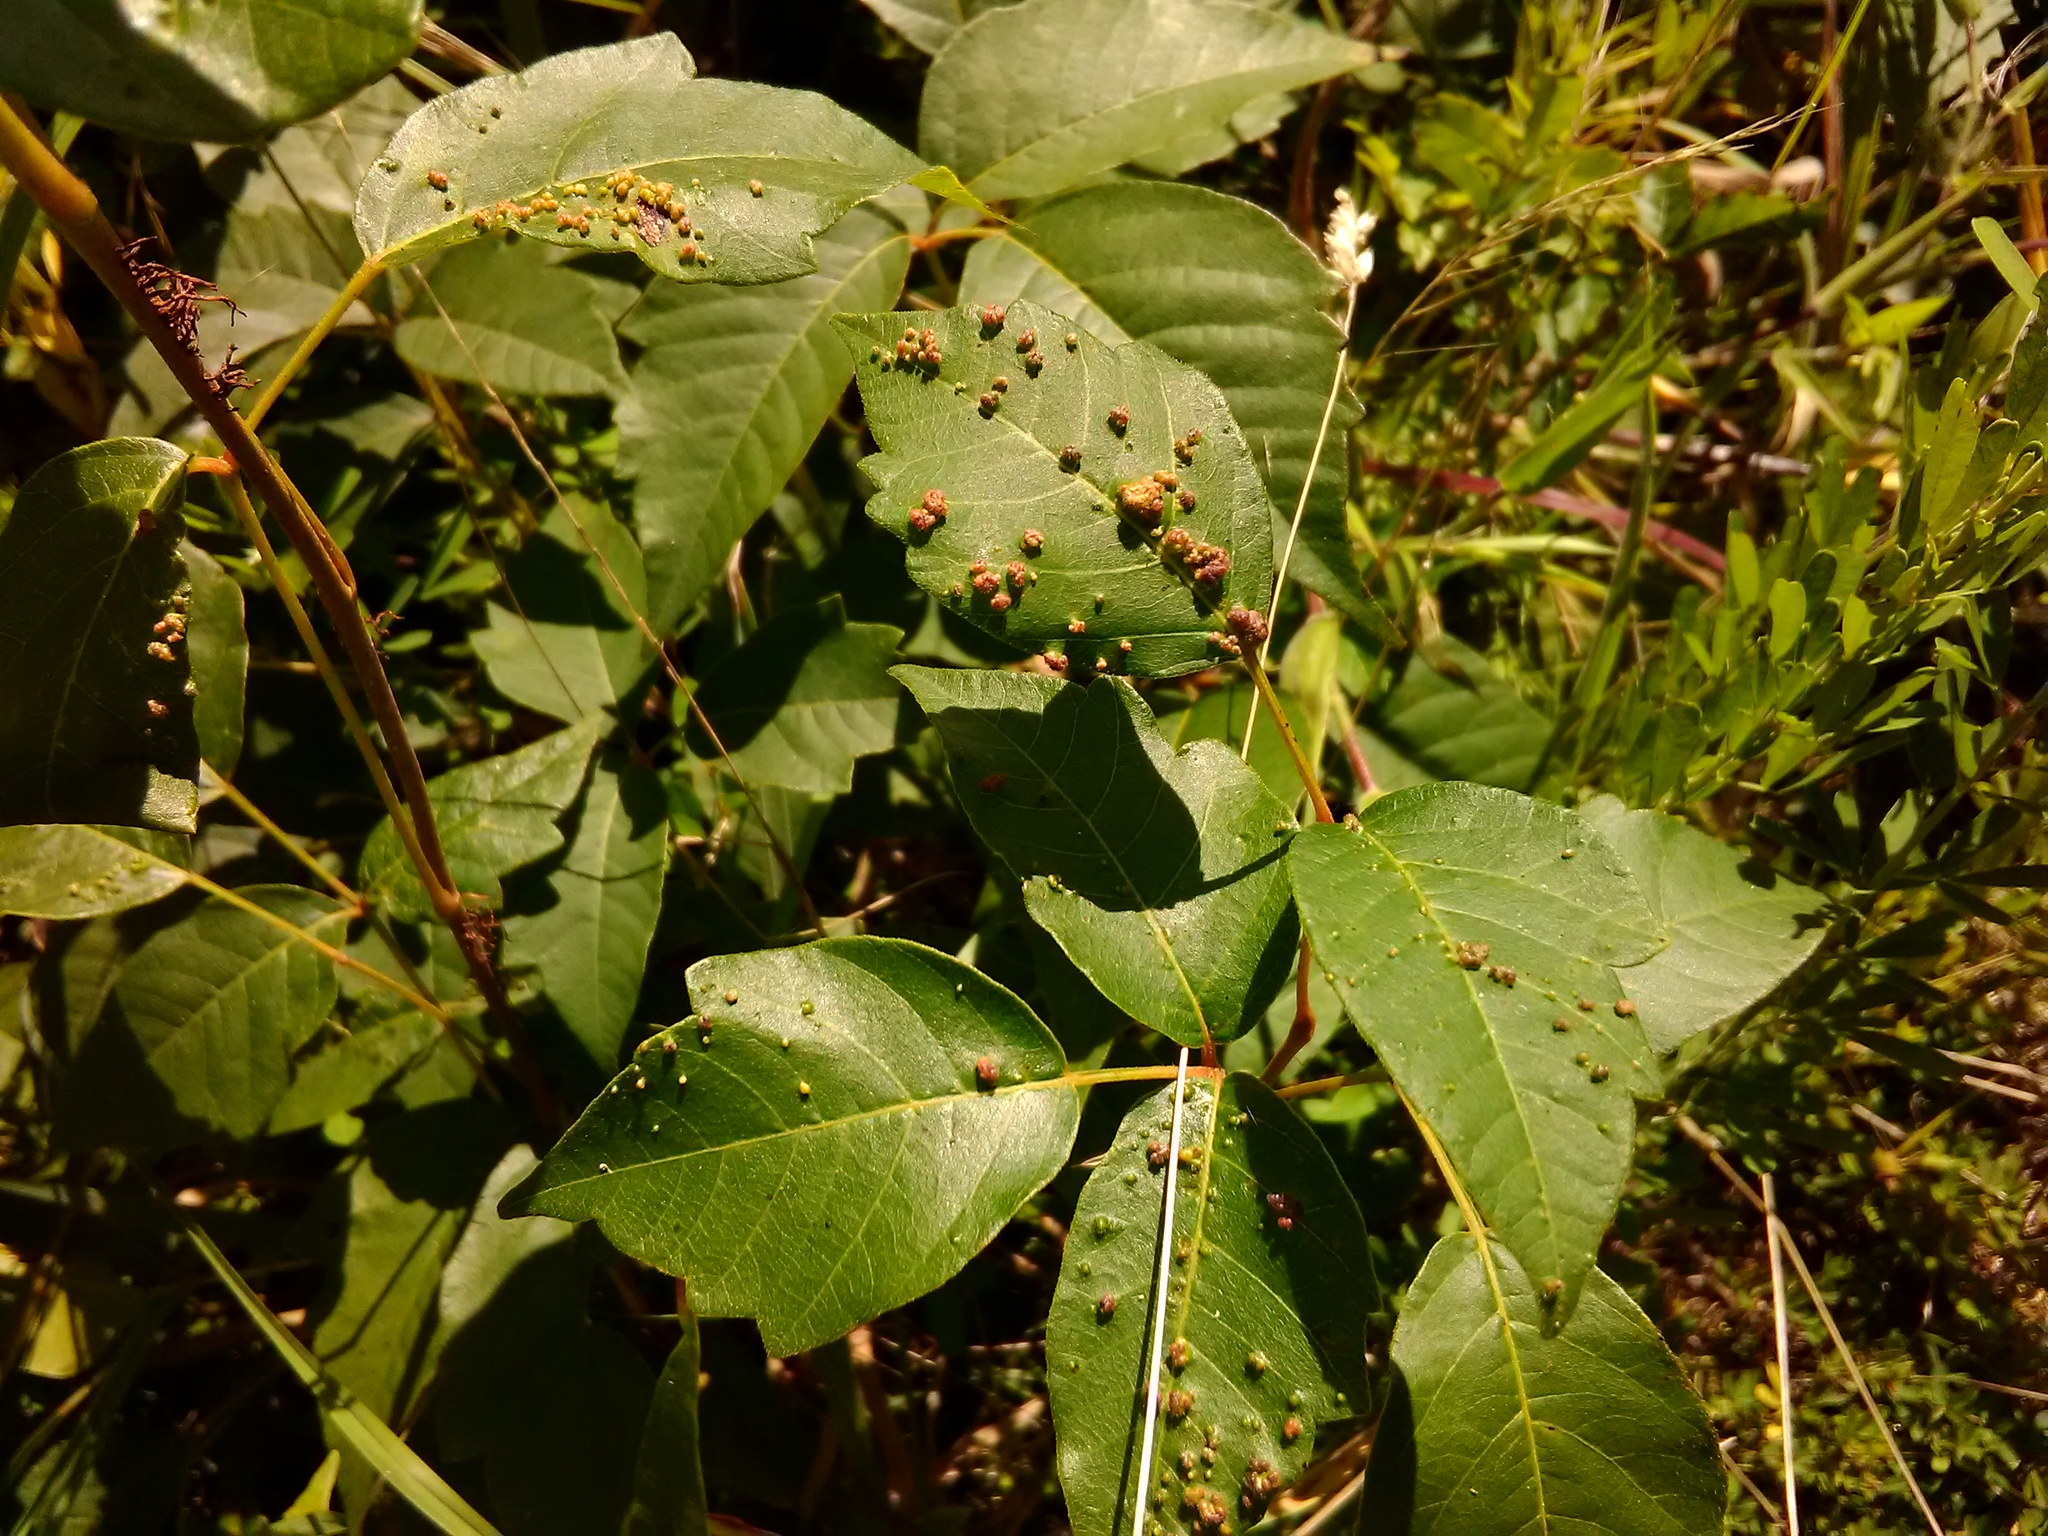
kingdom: Animalia
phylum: Arthropoda
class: Arachnida
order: Trombidiformes
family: Eriophyidae
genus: Aculops
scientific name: Aculops
